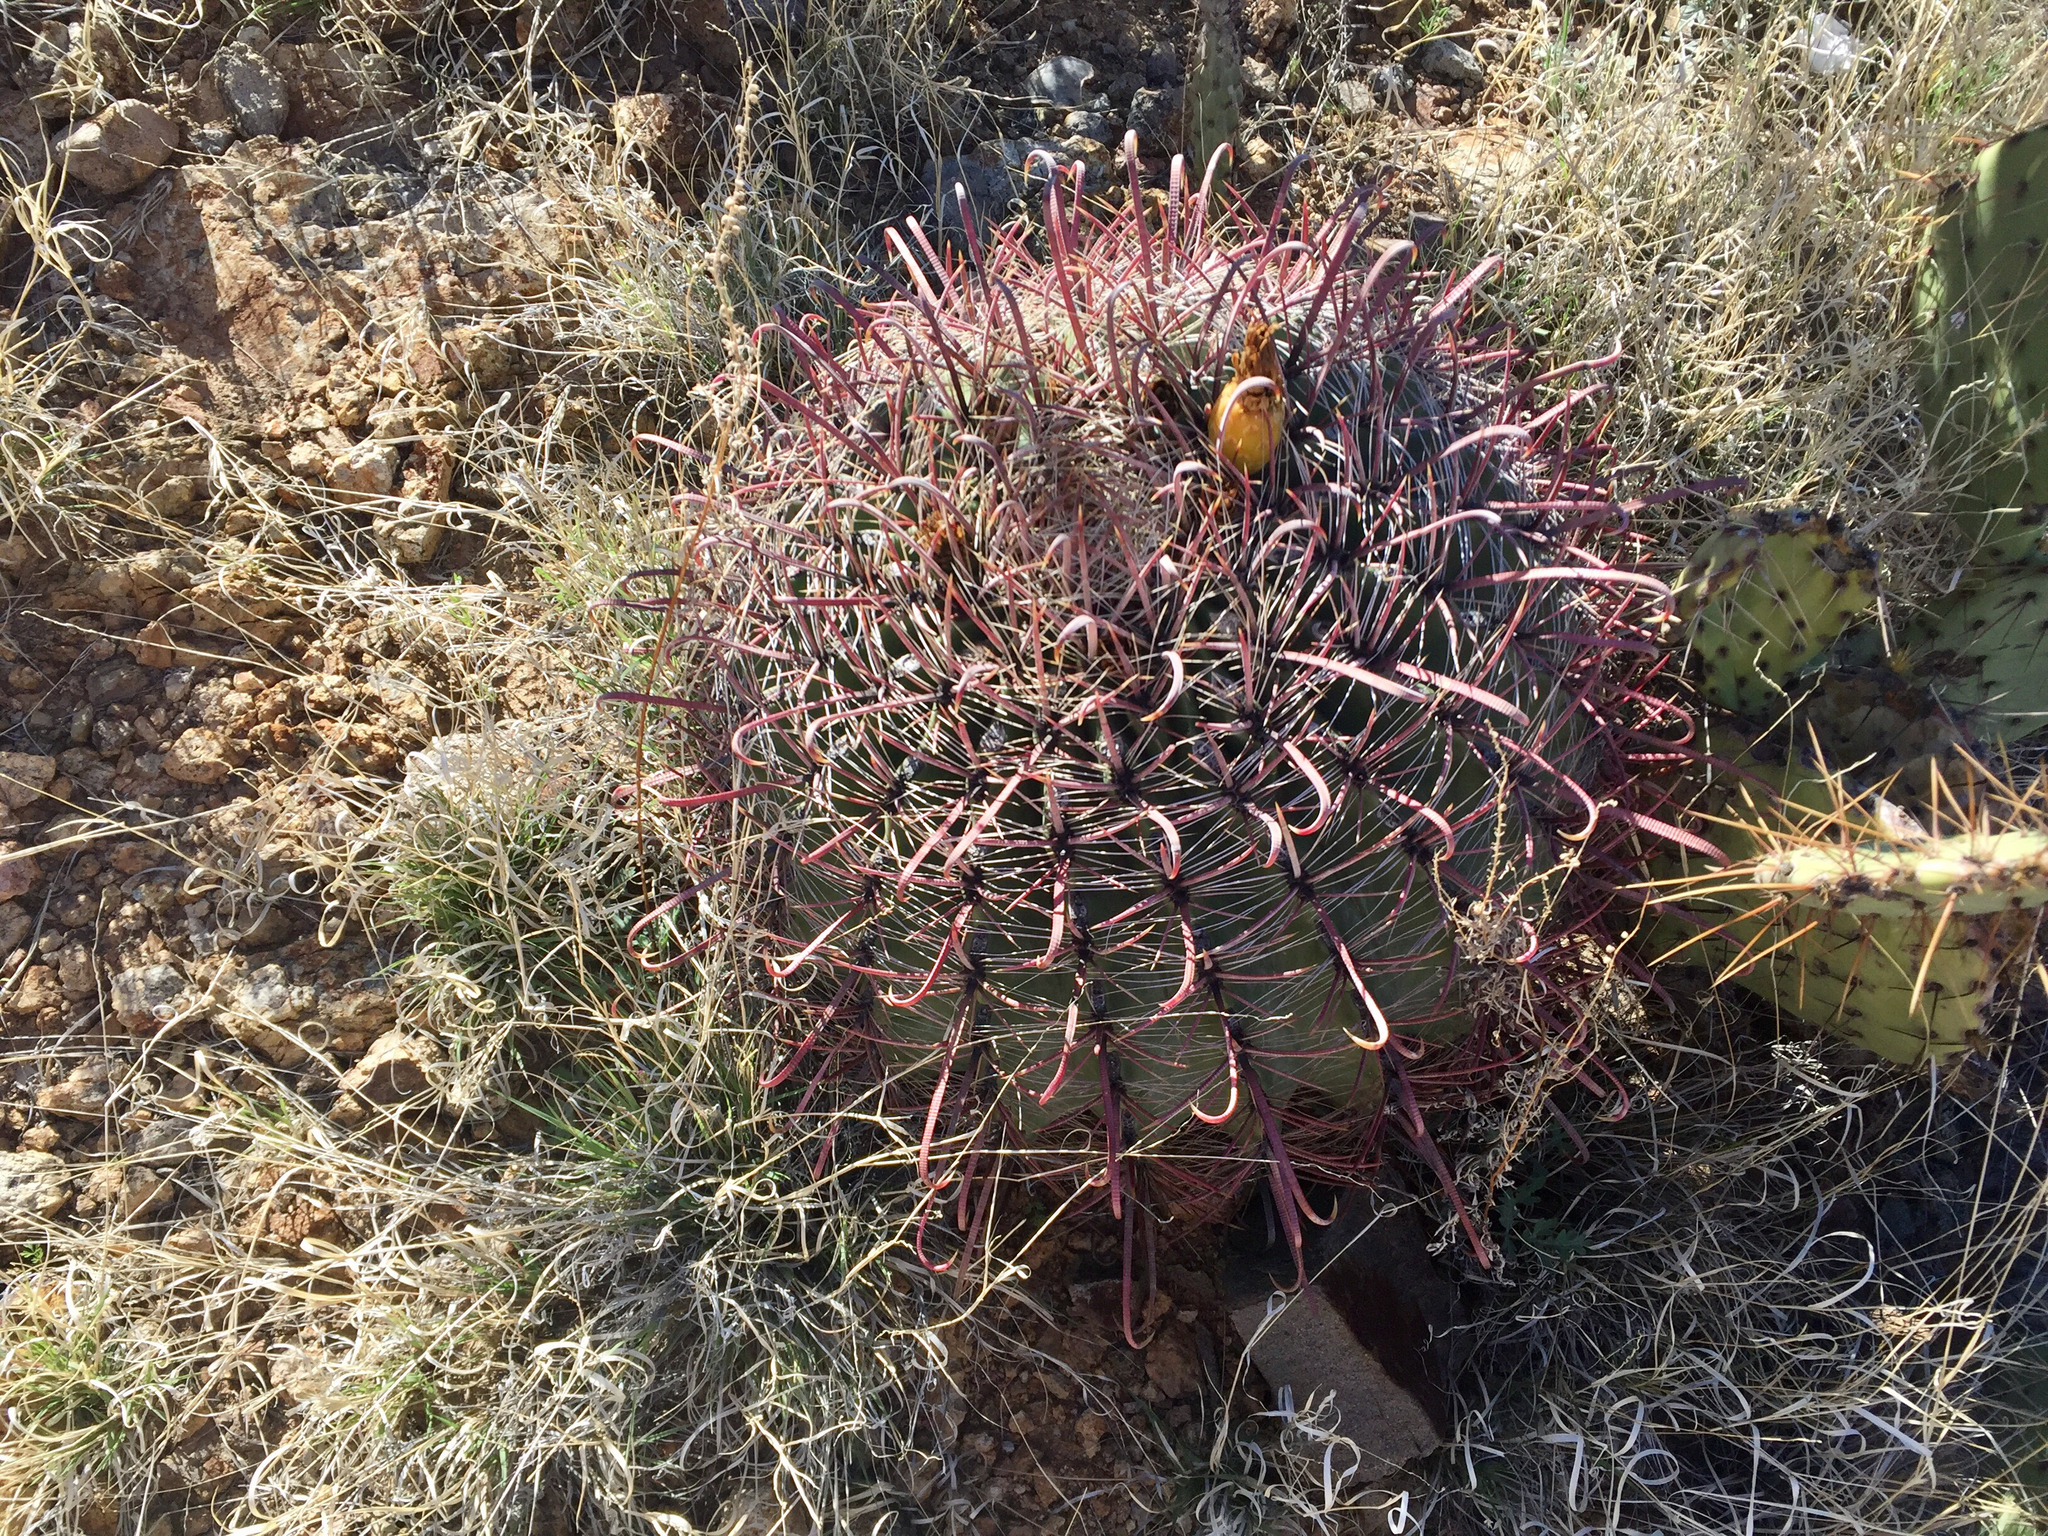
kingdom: Plantae
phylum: Tracheophyta
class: Magnoliopsida
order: Caryophyllales
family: Cactaceae
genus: Ferocactus
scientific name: Ferocactus wislizeni
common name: Candy barrel cactus
